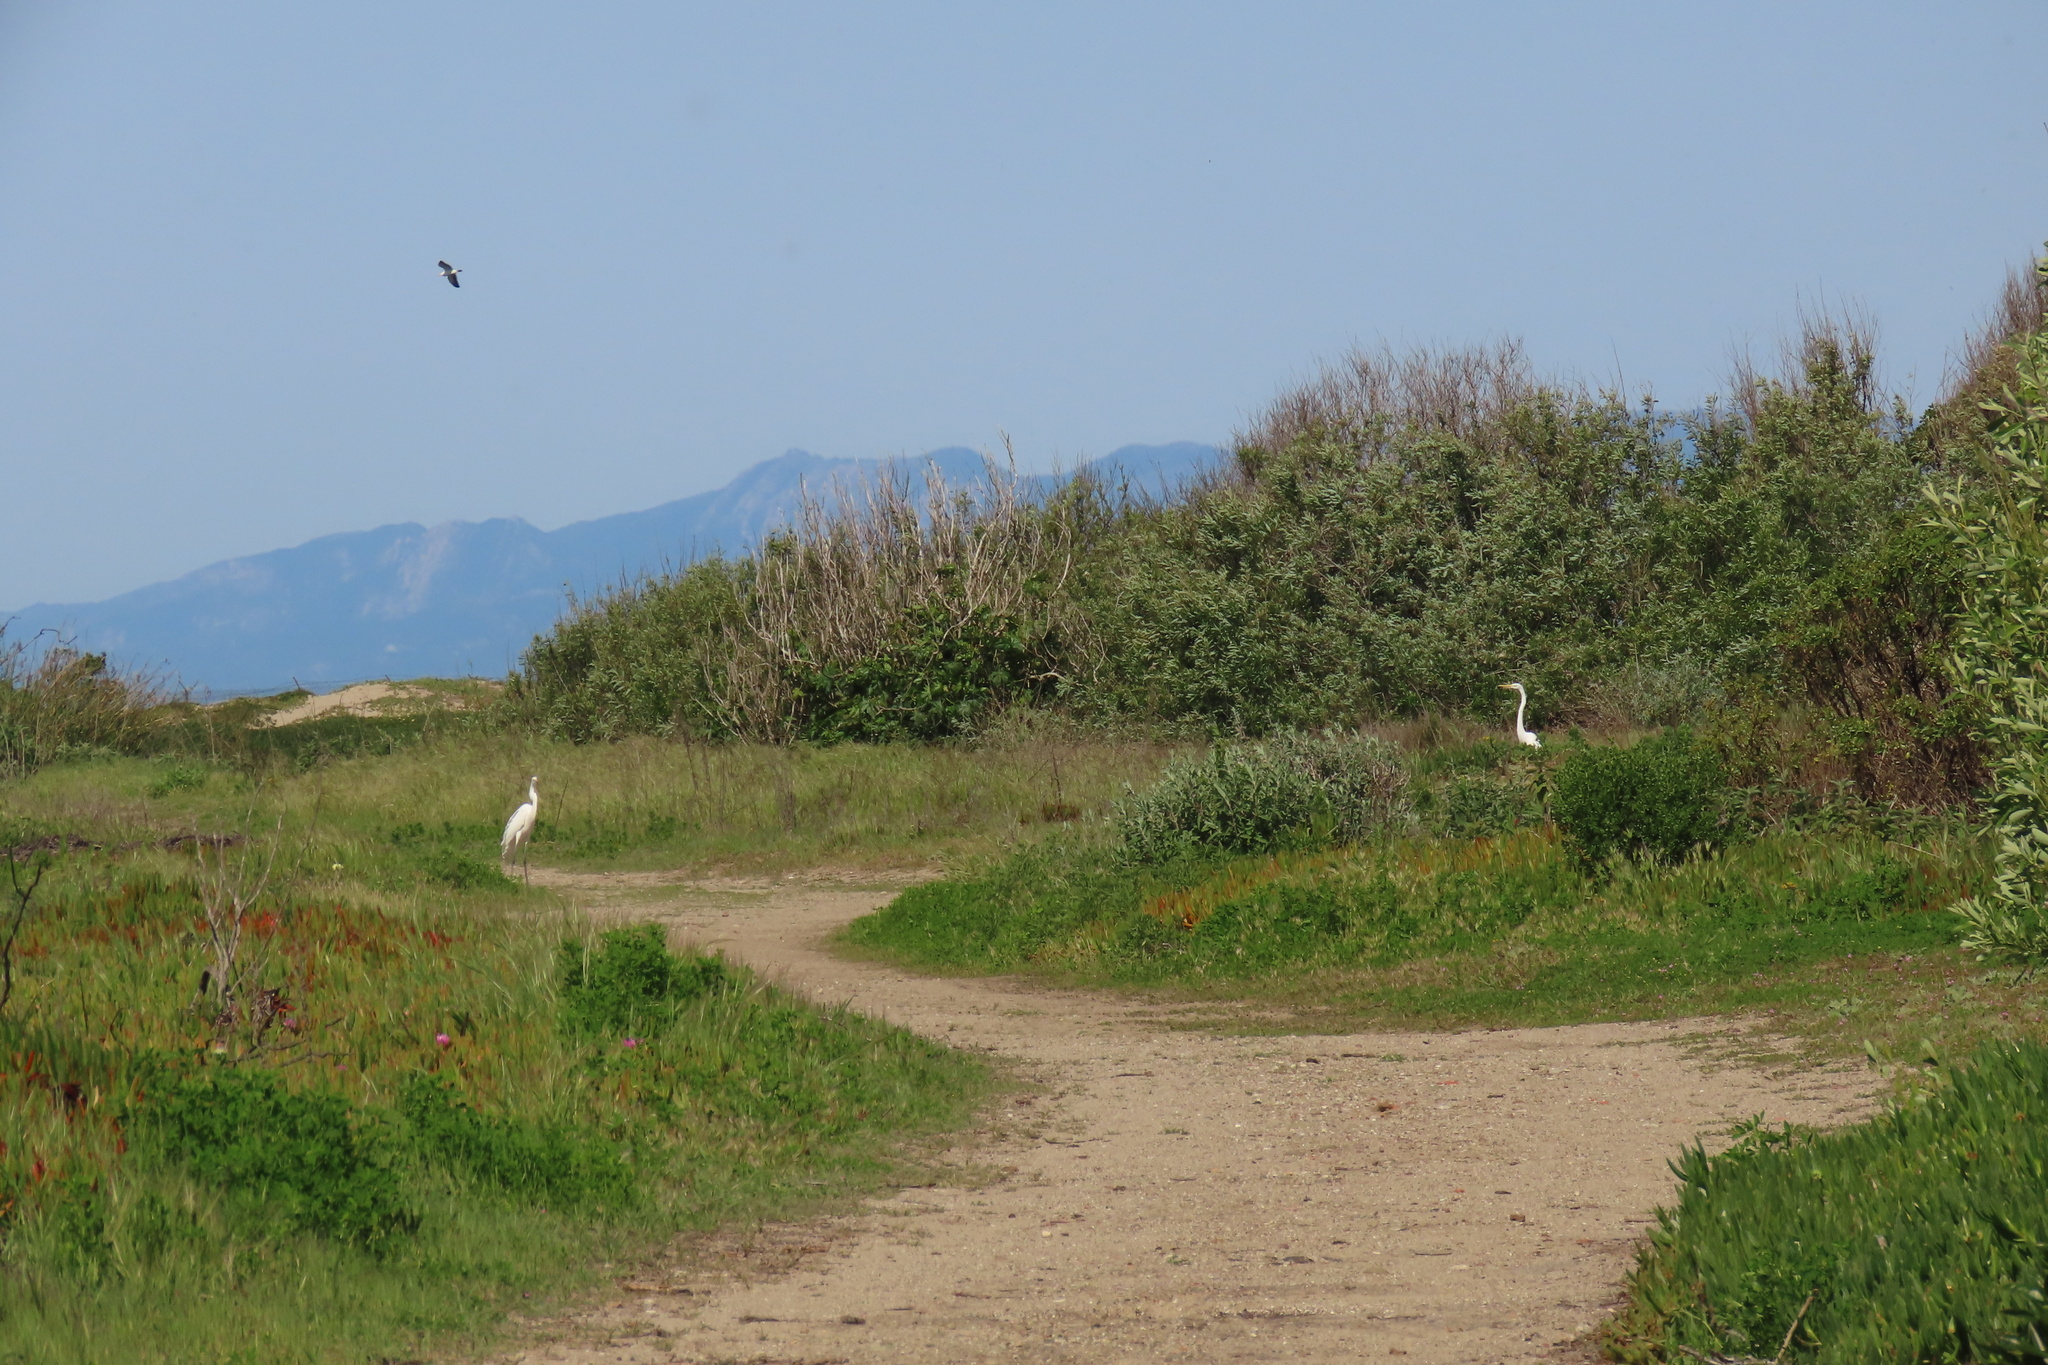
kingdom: Animalia
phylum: Chordata
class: Aves
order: Pelecaniformes
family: Ardeidae
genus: Ardea
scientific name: Ardea alba
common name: Great egret
